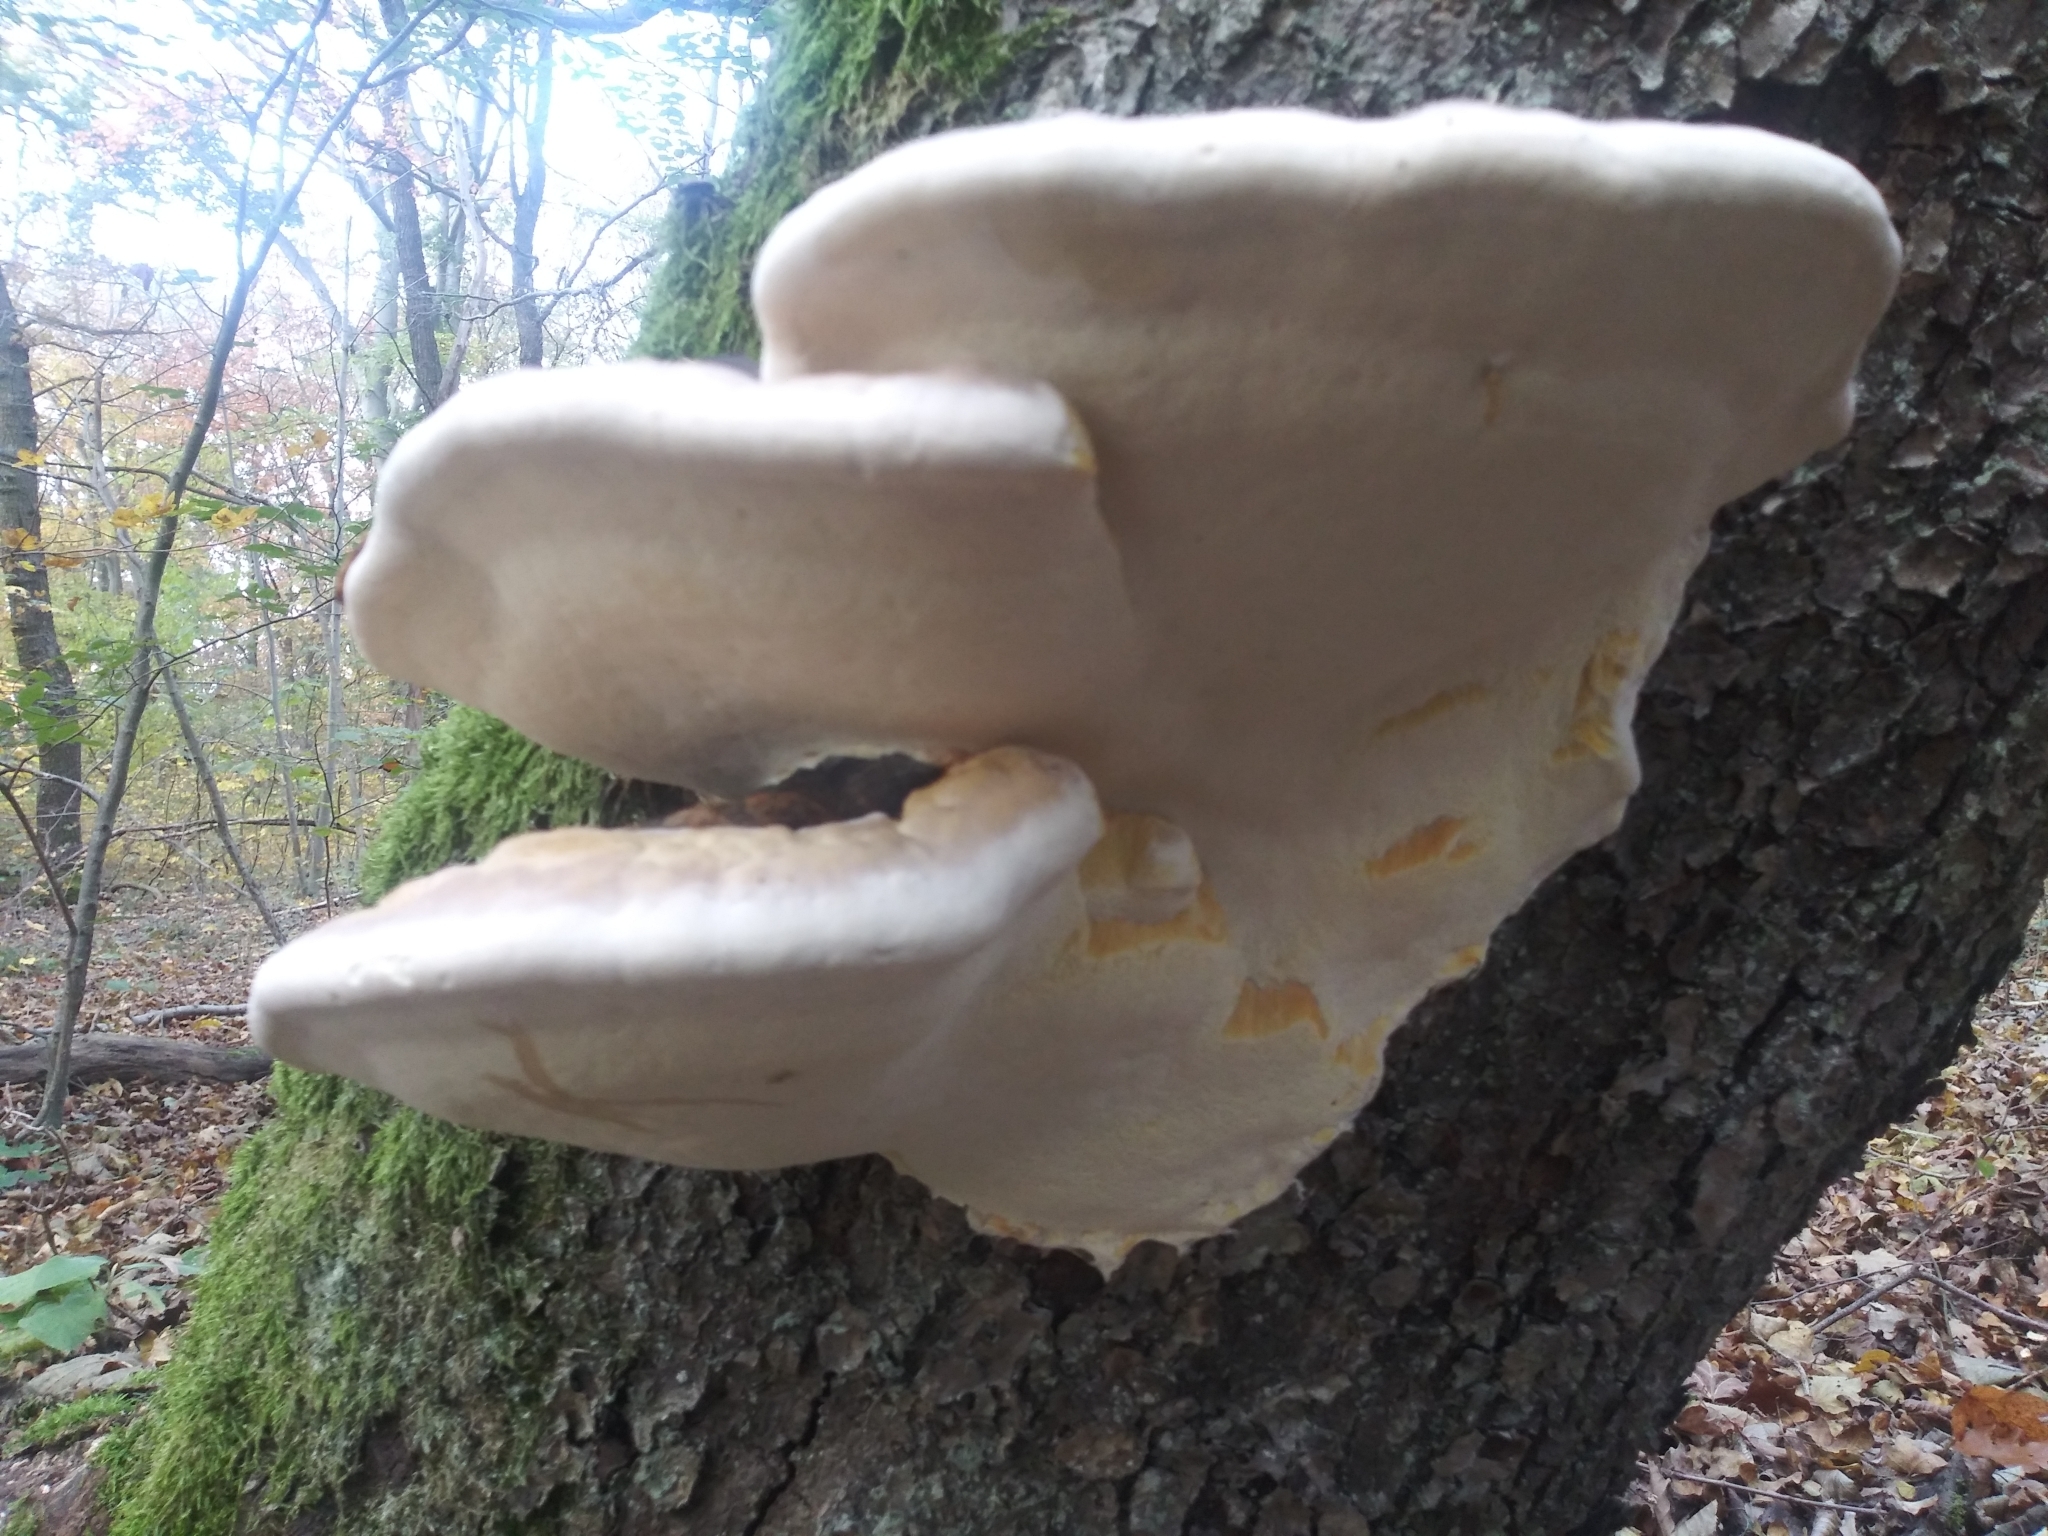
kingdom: Fungi
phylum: Basidiomycota
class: Agaricomycetes
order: Polyporales
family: Fomitopsidaceae
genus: Fomitopsis
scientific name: Fomitopsis pinicola
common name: Red-belted bracket
